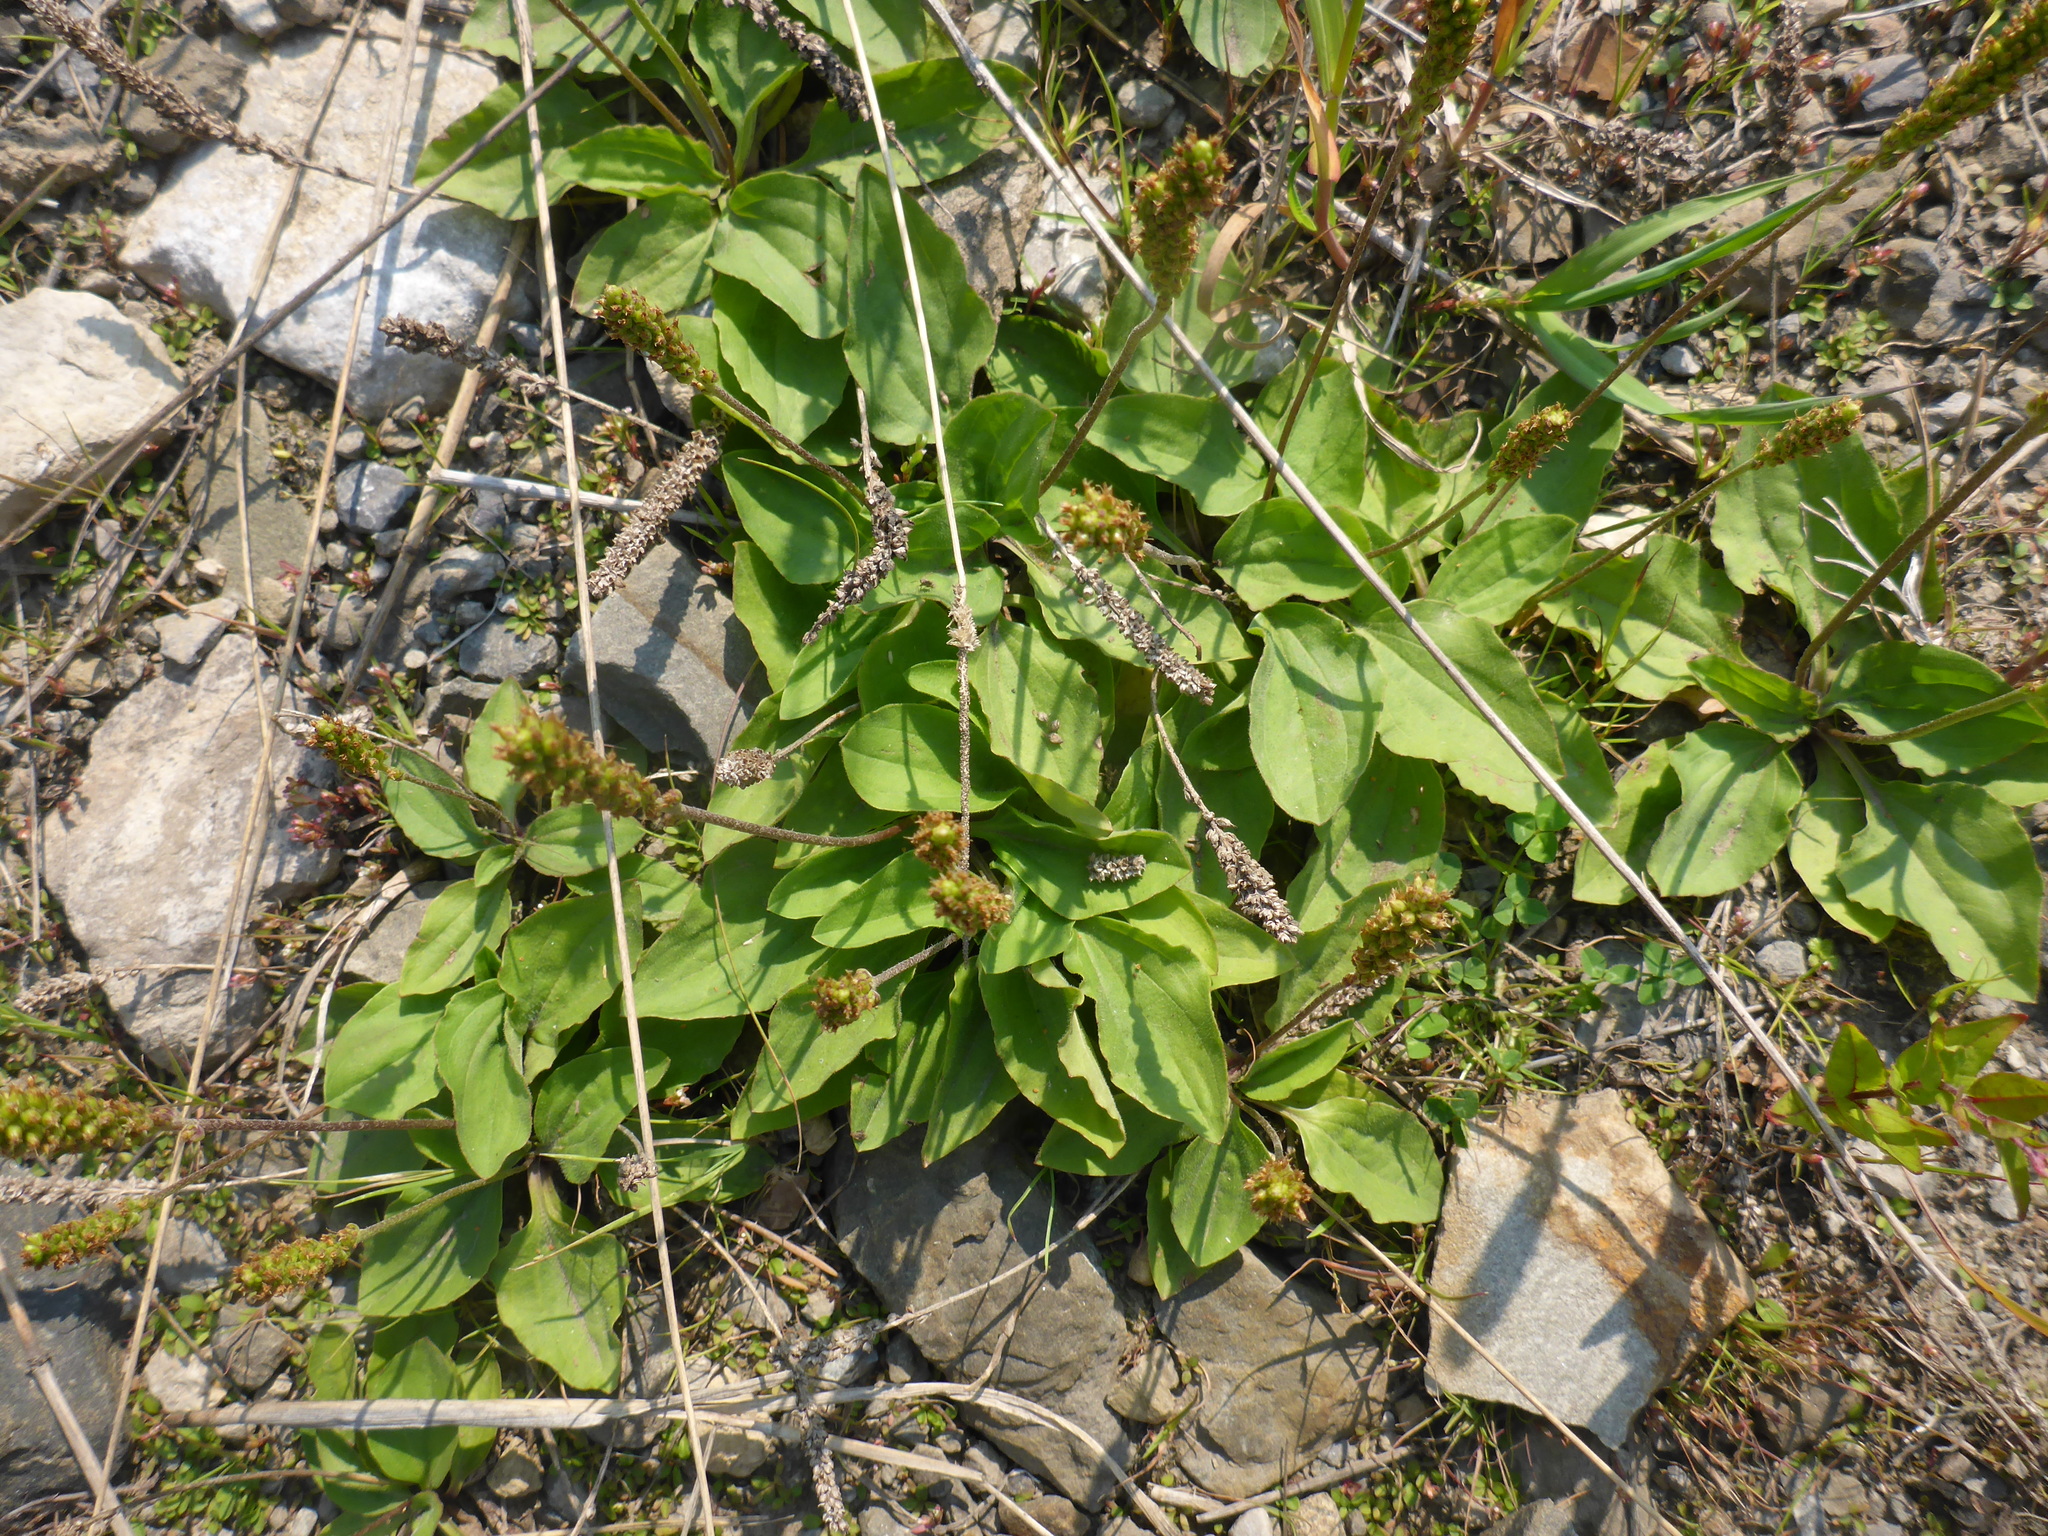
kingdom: Plantae
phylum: Tracheophyta
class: Magnoliopsida
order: Lamiales
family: Plantaginaceae
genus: Plantago
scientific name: Plantago major
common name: Common plantain
